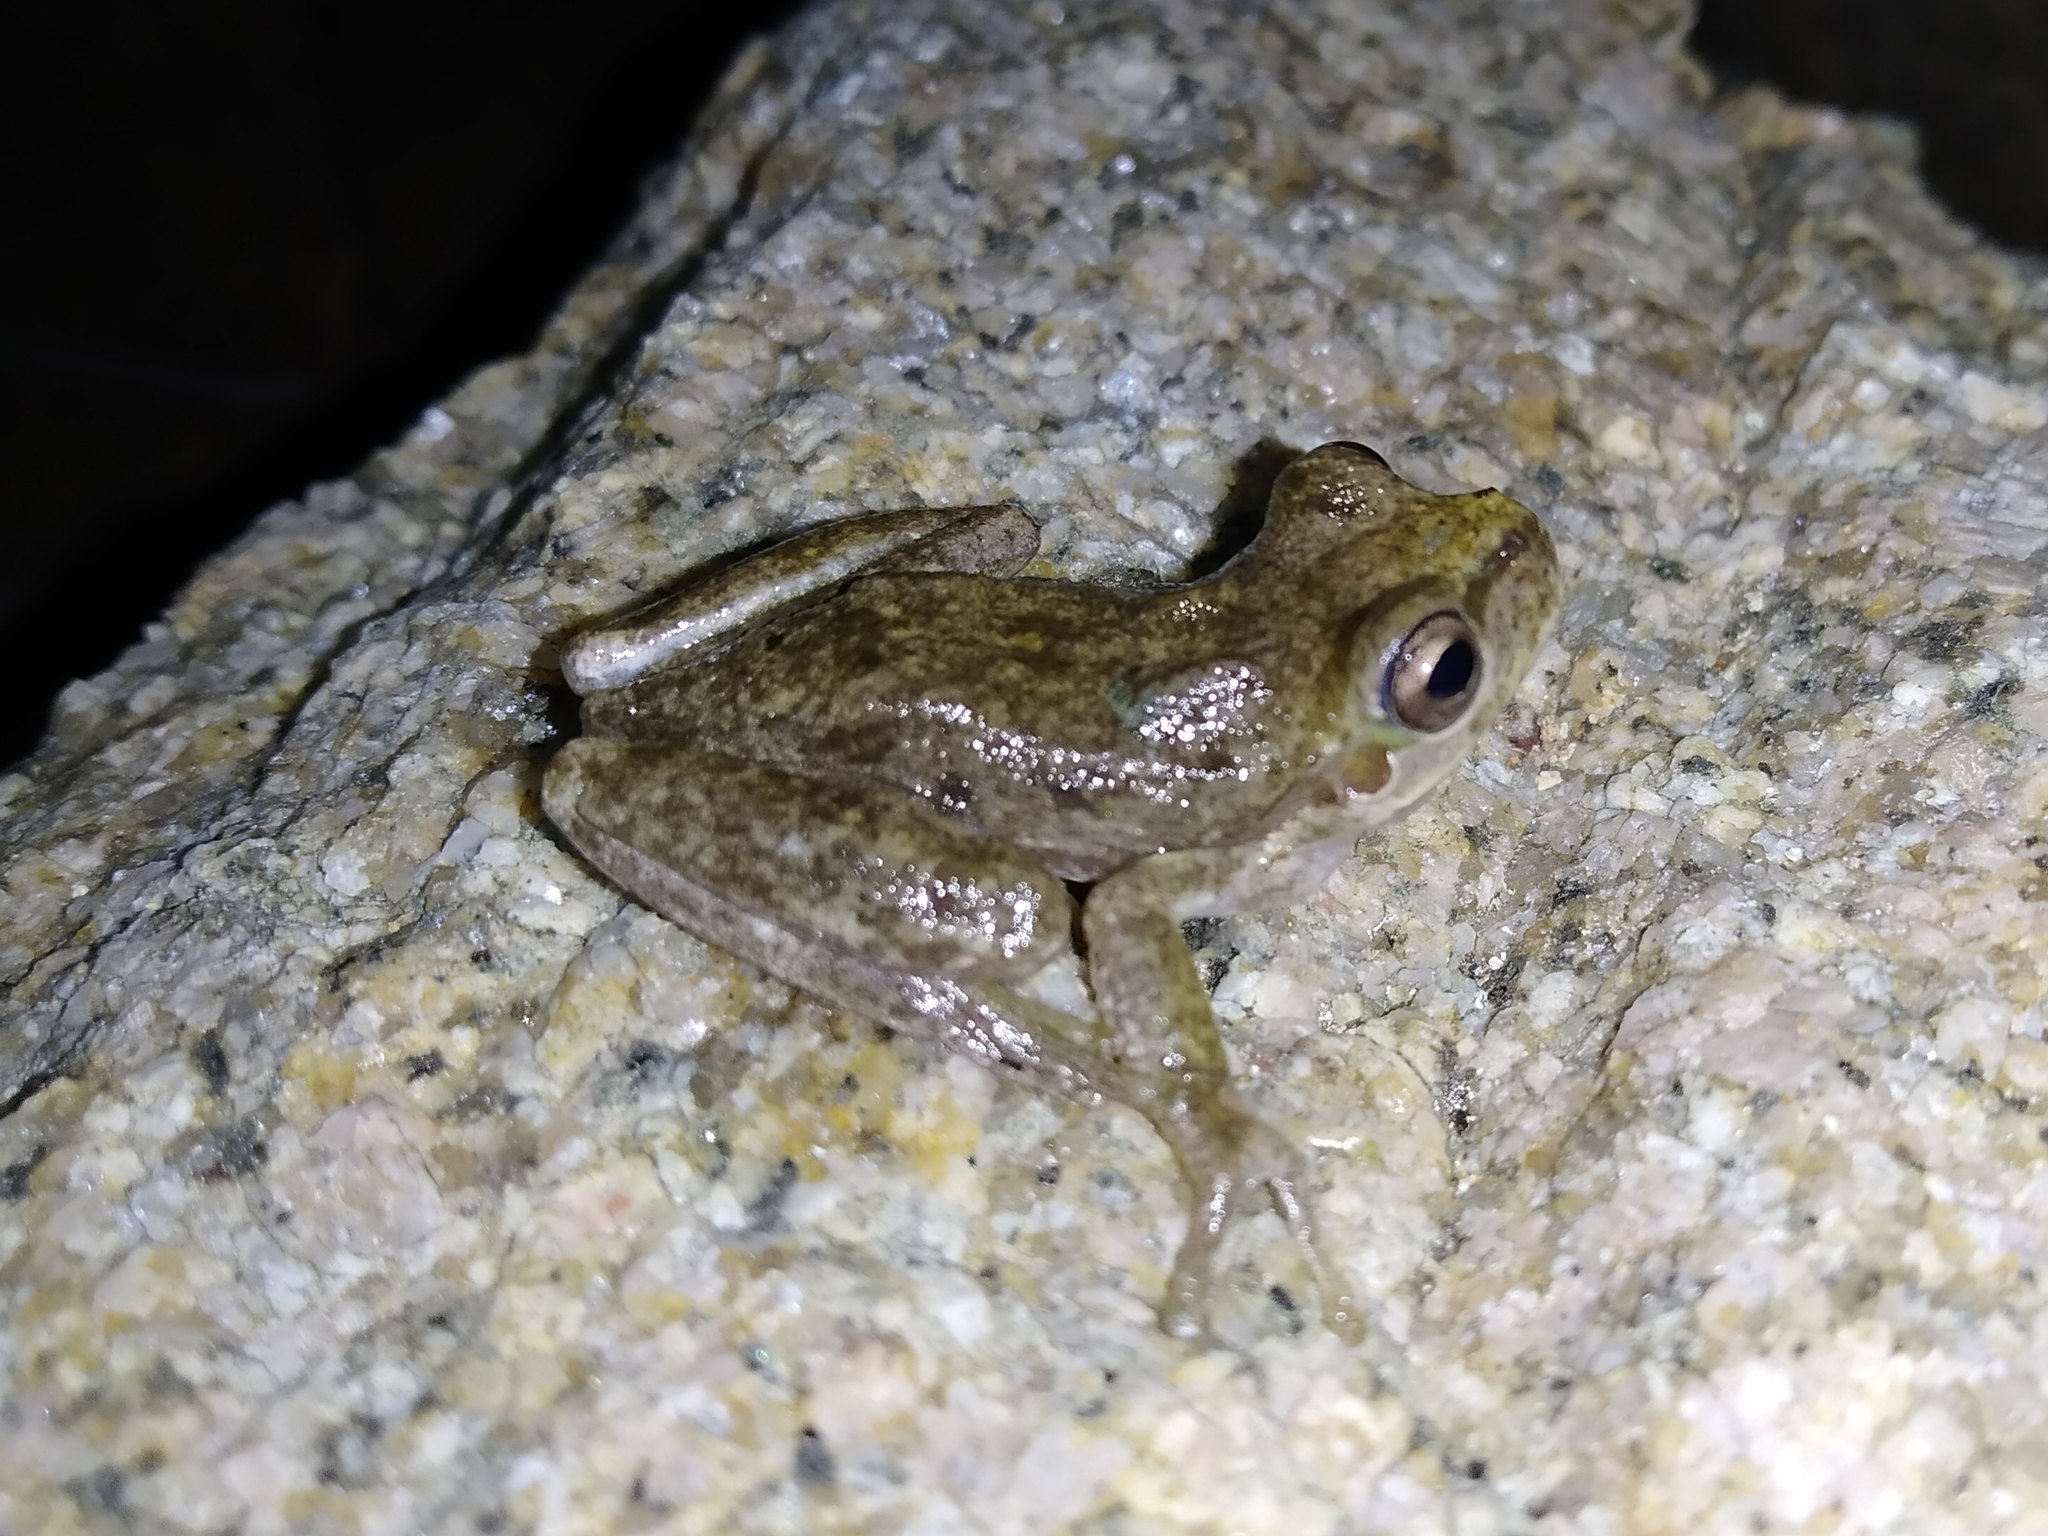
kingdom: Animalia
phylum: Chordata
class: Amphibia
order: Anura
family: Hylidae
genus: Hyla
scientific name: Hyla sarda
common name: Sardinian tree frog
